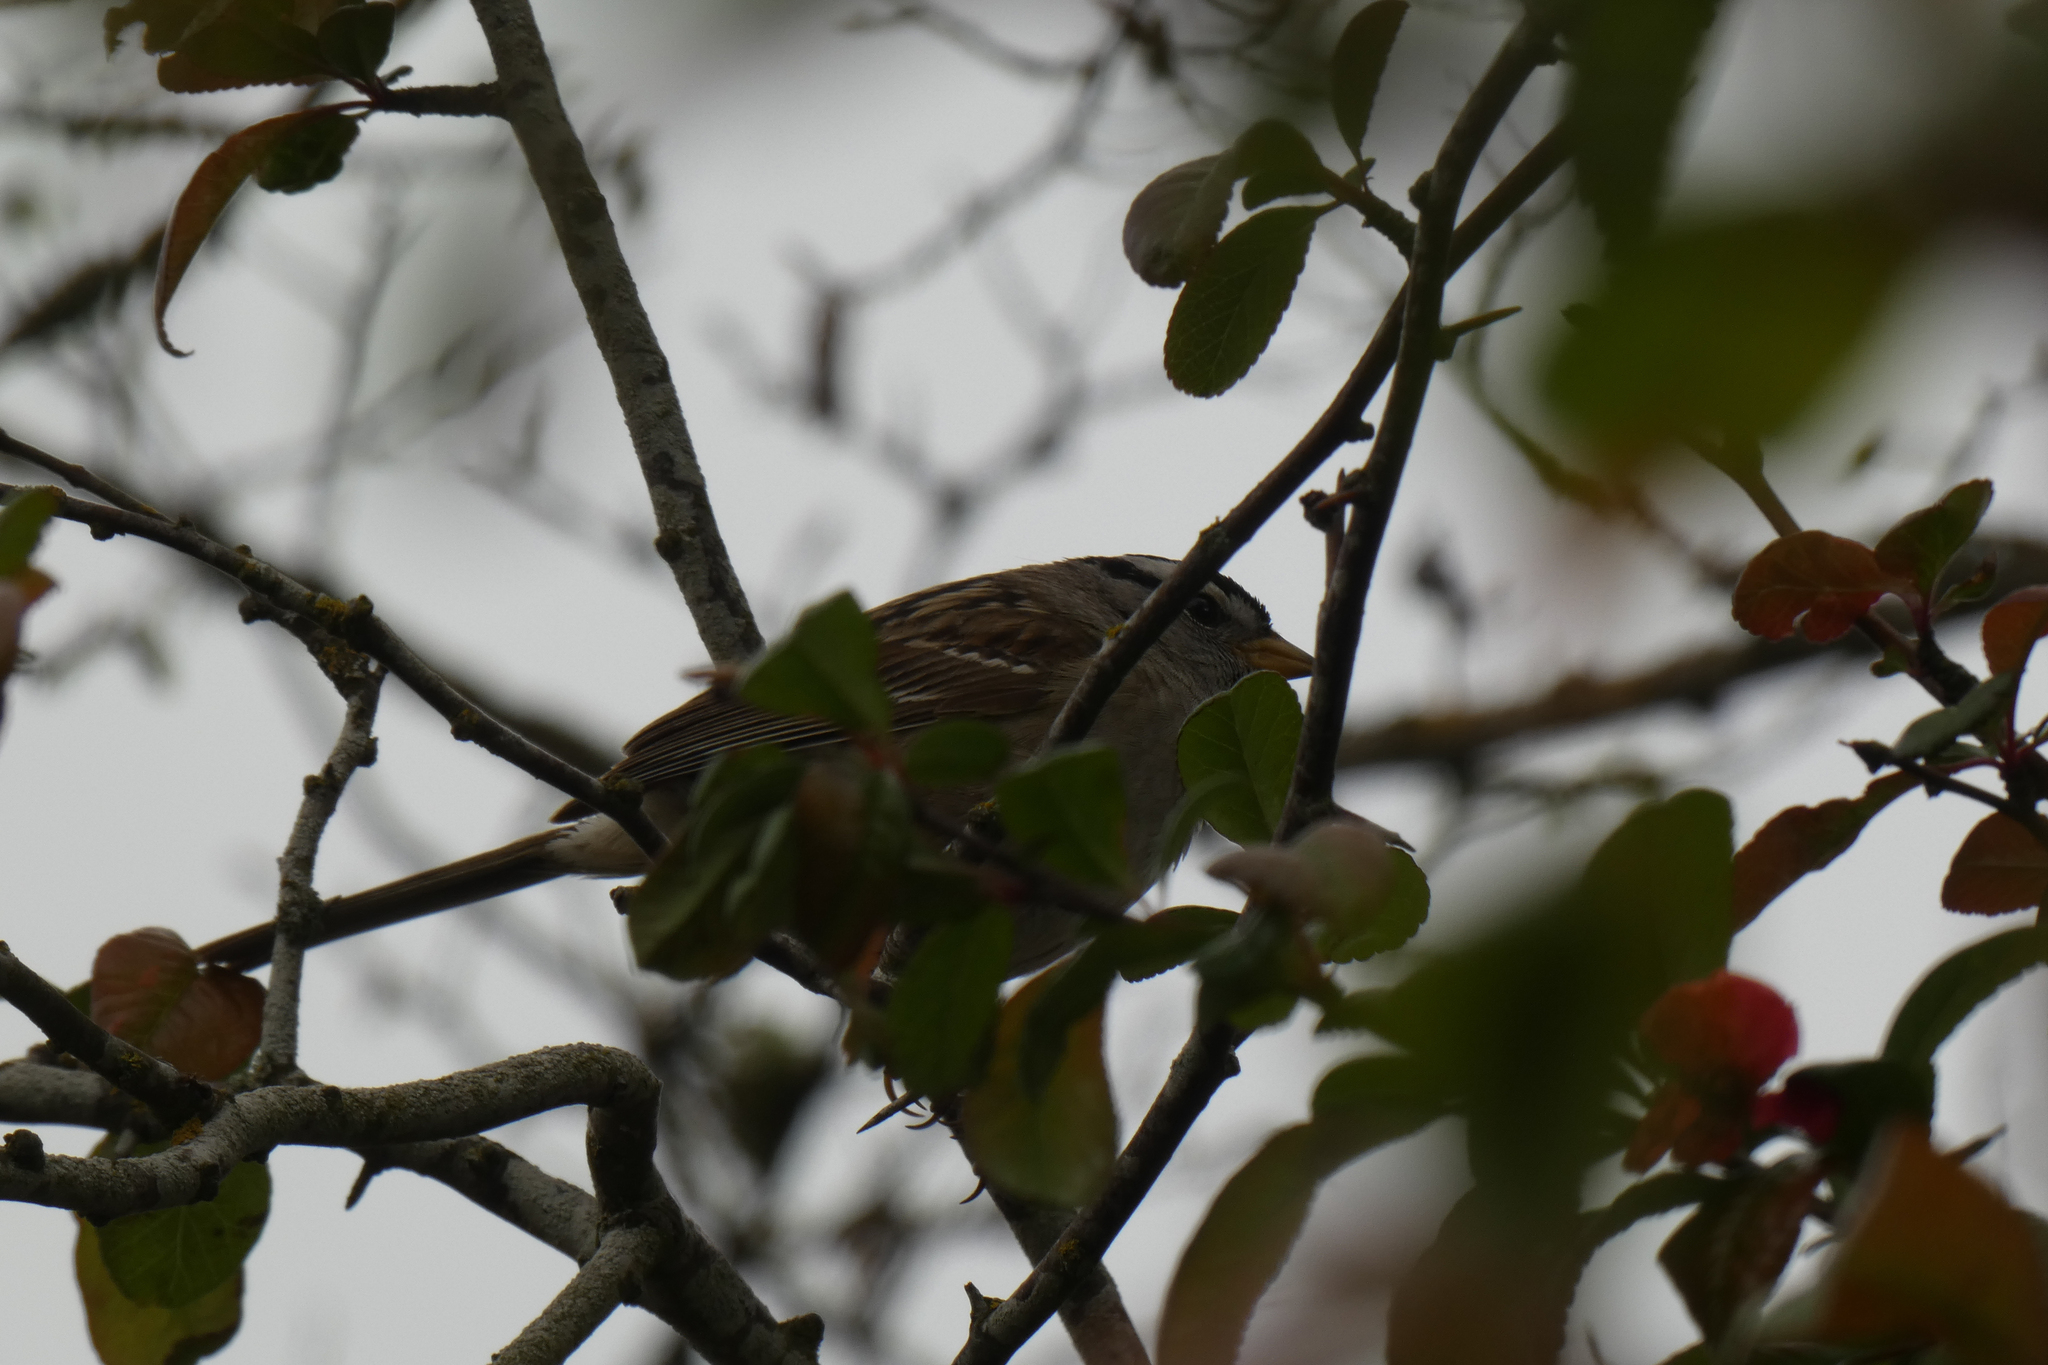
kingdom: Animalia
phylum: Chordata
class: Aves
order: Passeriformes
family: Passerellidae
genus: Zonotrichia
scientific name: Zonotrichia leucophrys
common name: White-crowned sparrow
